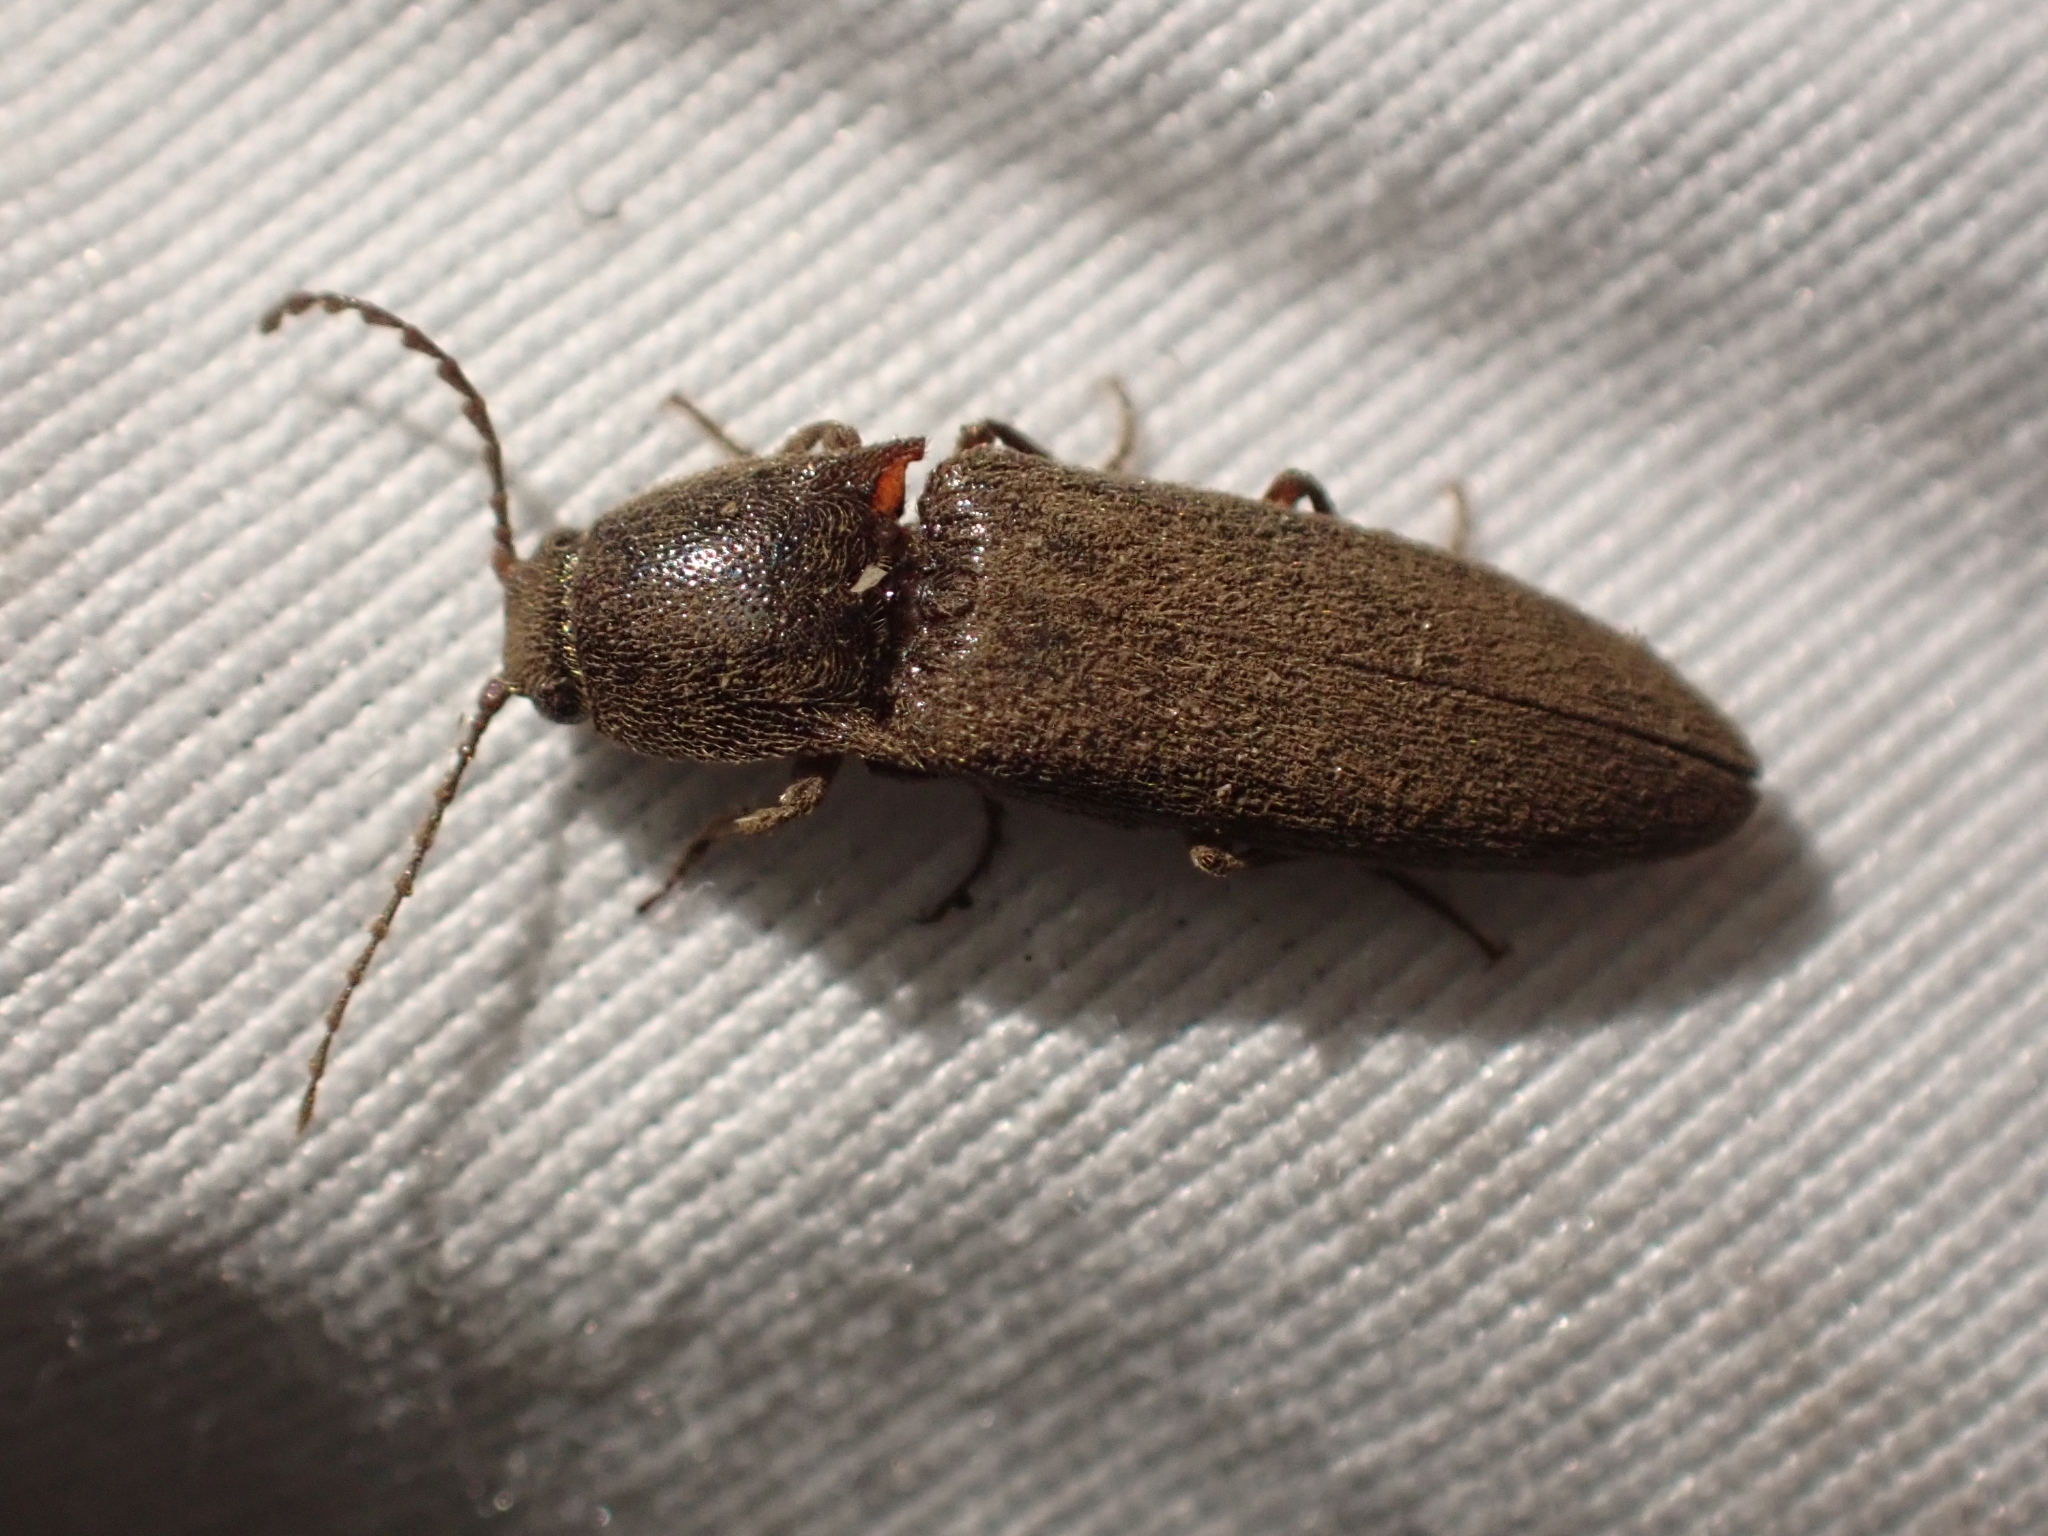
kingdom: Animalia
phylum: Arthropoda
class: Insecta
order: Coleoptera
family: Elateridae
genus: Melanotus
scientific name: Melanotus longulus
